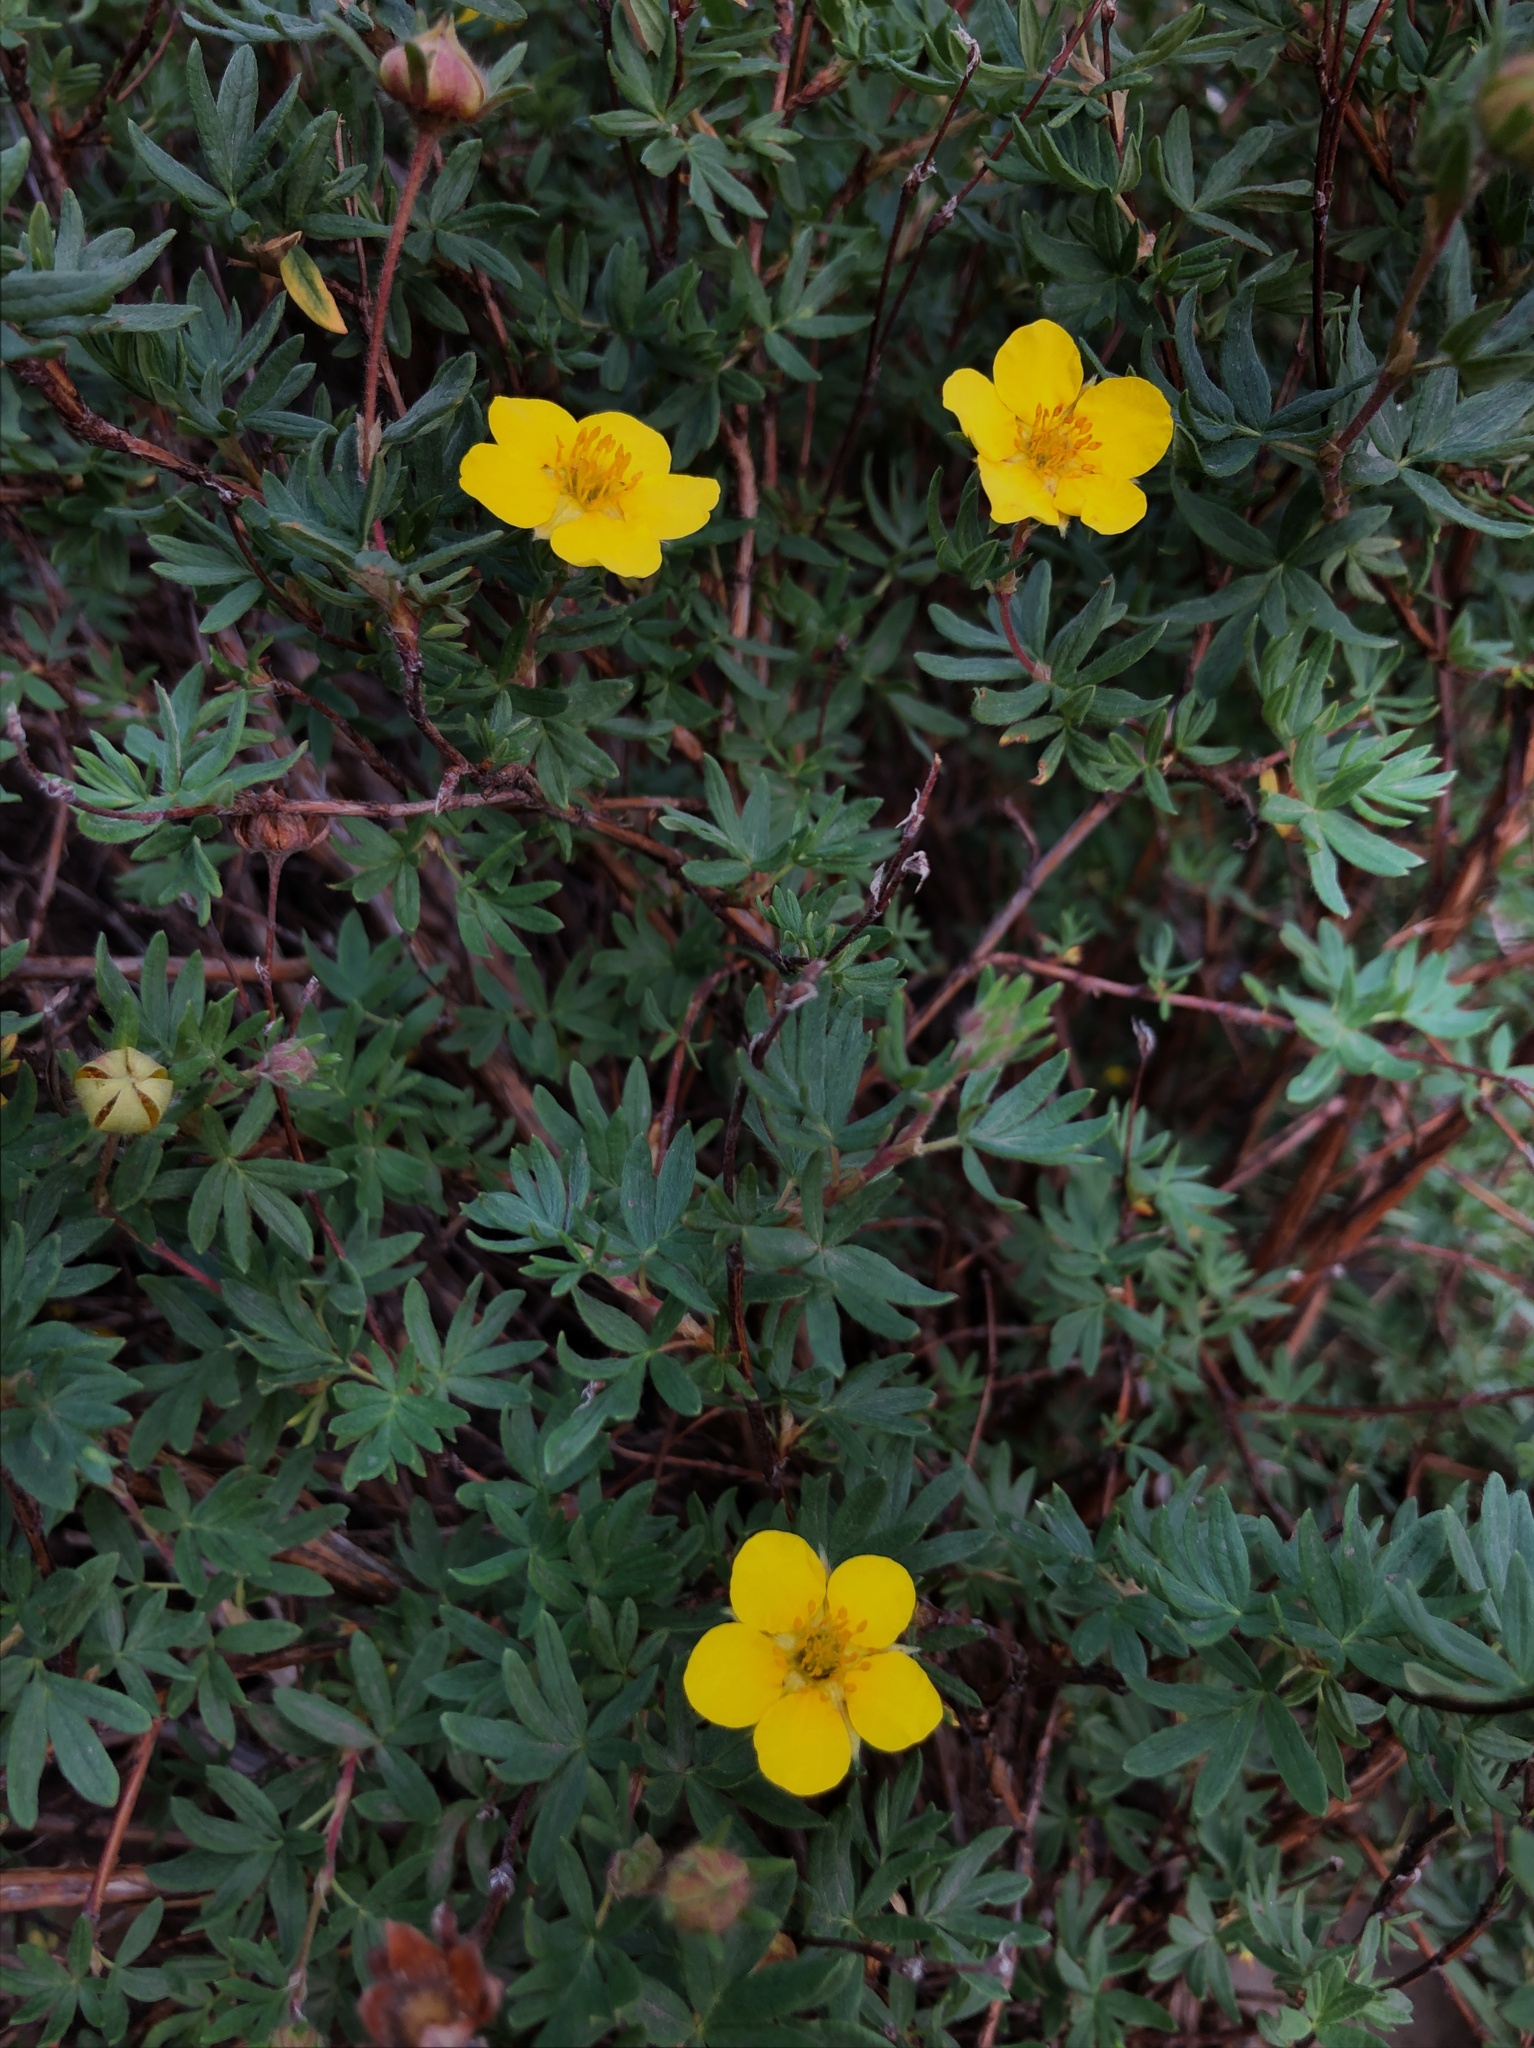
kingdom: Plantae
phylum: Tracheophyta
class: Magnoliopsida
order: Rosales
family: Rosaceae
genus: Dasiphora
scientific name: Dasiphora fruticosa
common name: Shrubby cinquefoil
